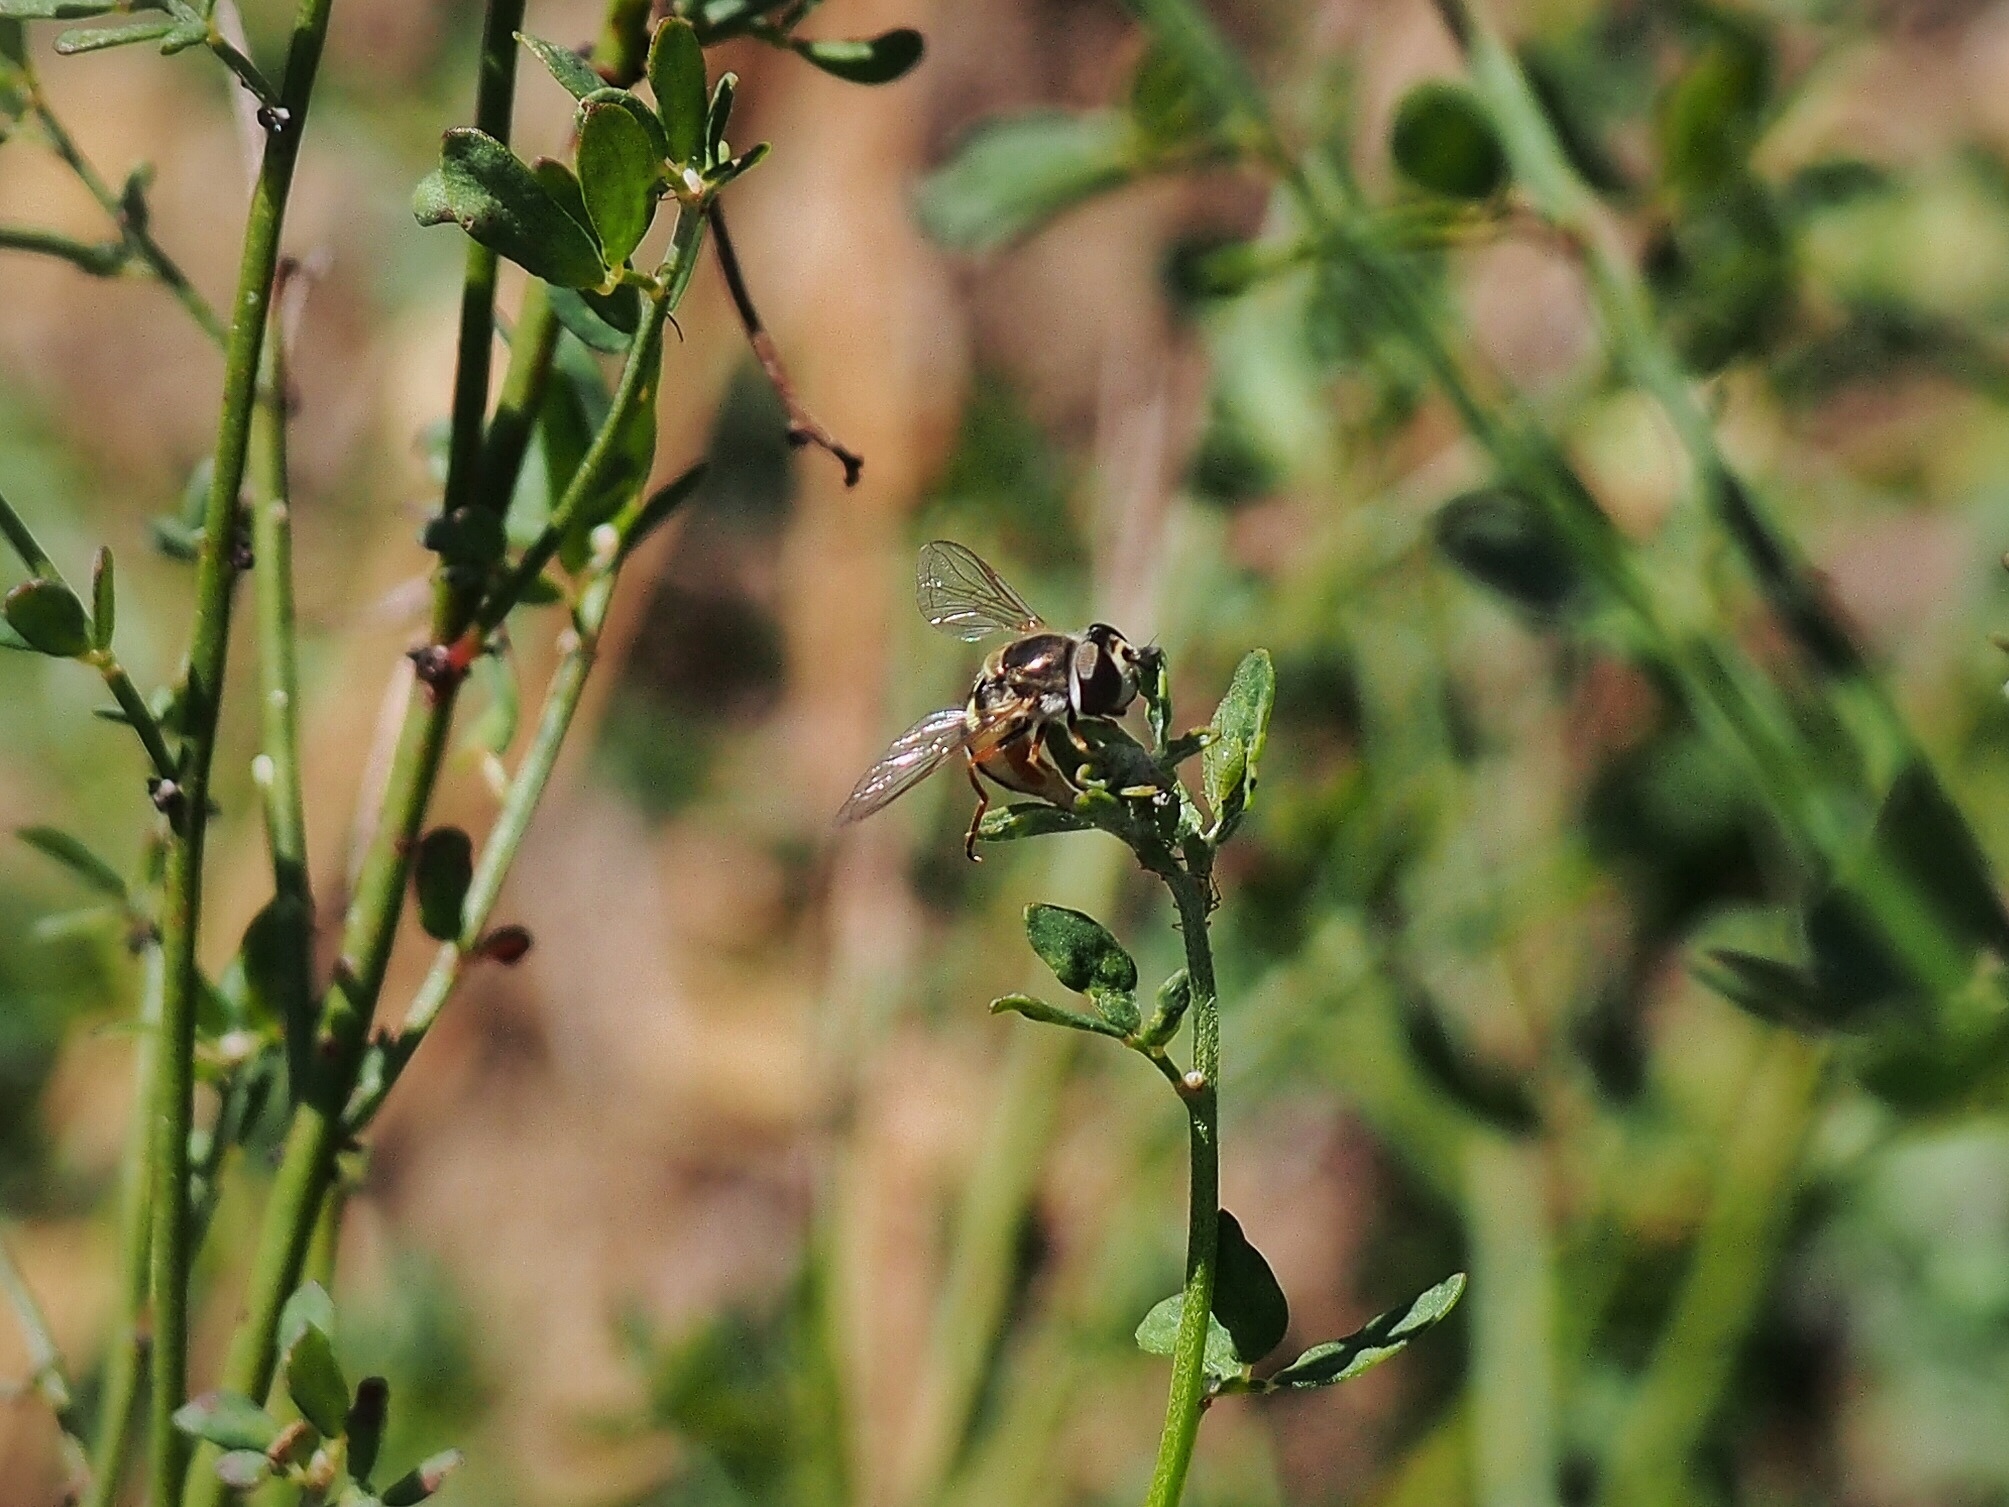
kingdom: Animalia
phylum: Arthropoda
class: Insecta
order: Diptera
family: Syrphidae
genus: Eupeodes
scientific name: Eupeodes volucris
